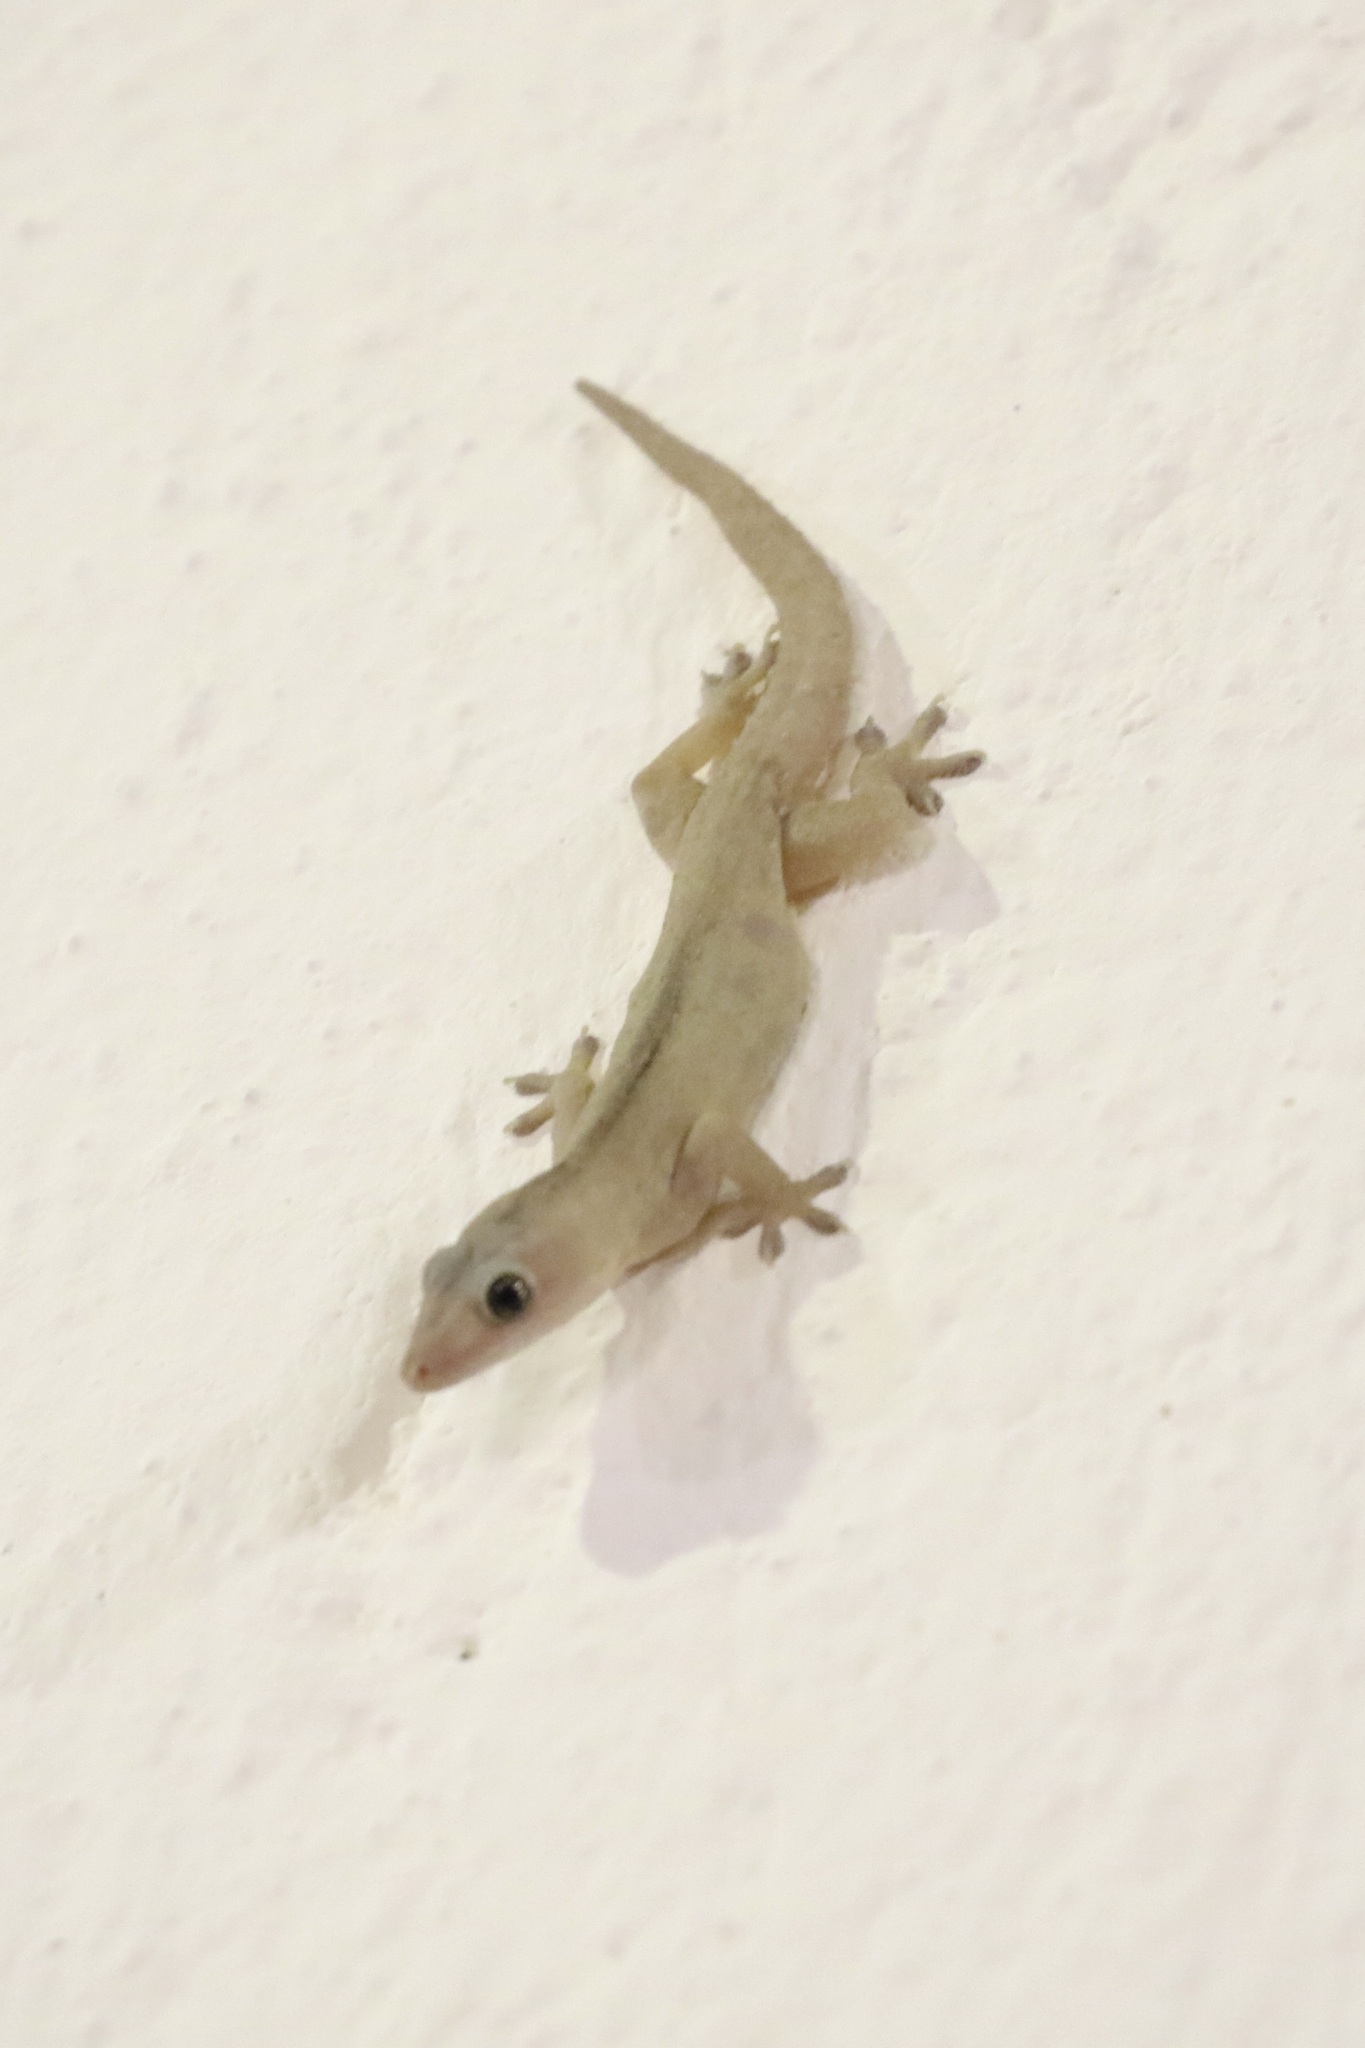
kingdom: Animalia
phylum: Chordata
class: Squamata
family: Gekkonidae
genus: Lepidodactylus
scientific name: Lepidodactylus lugubris
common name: Mourning gecko
